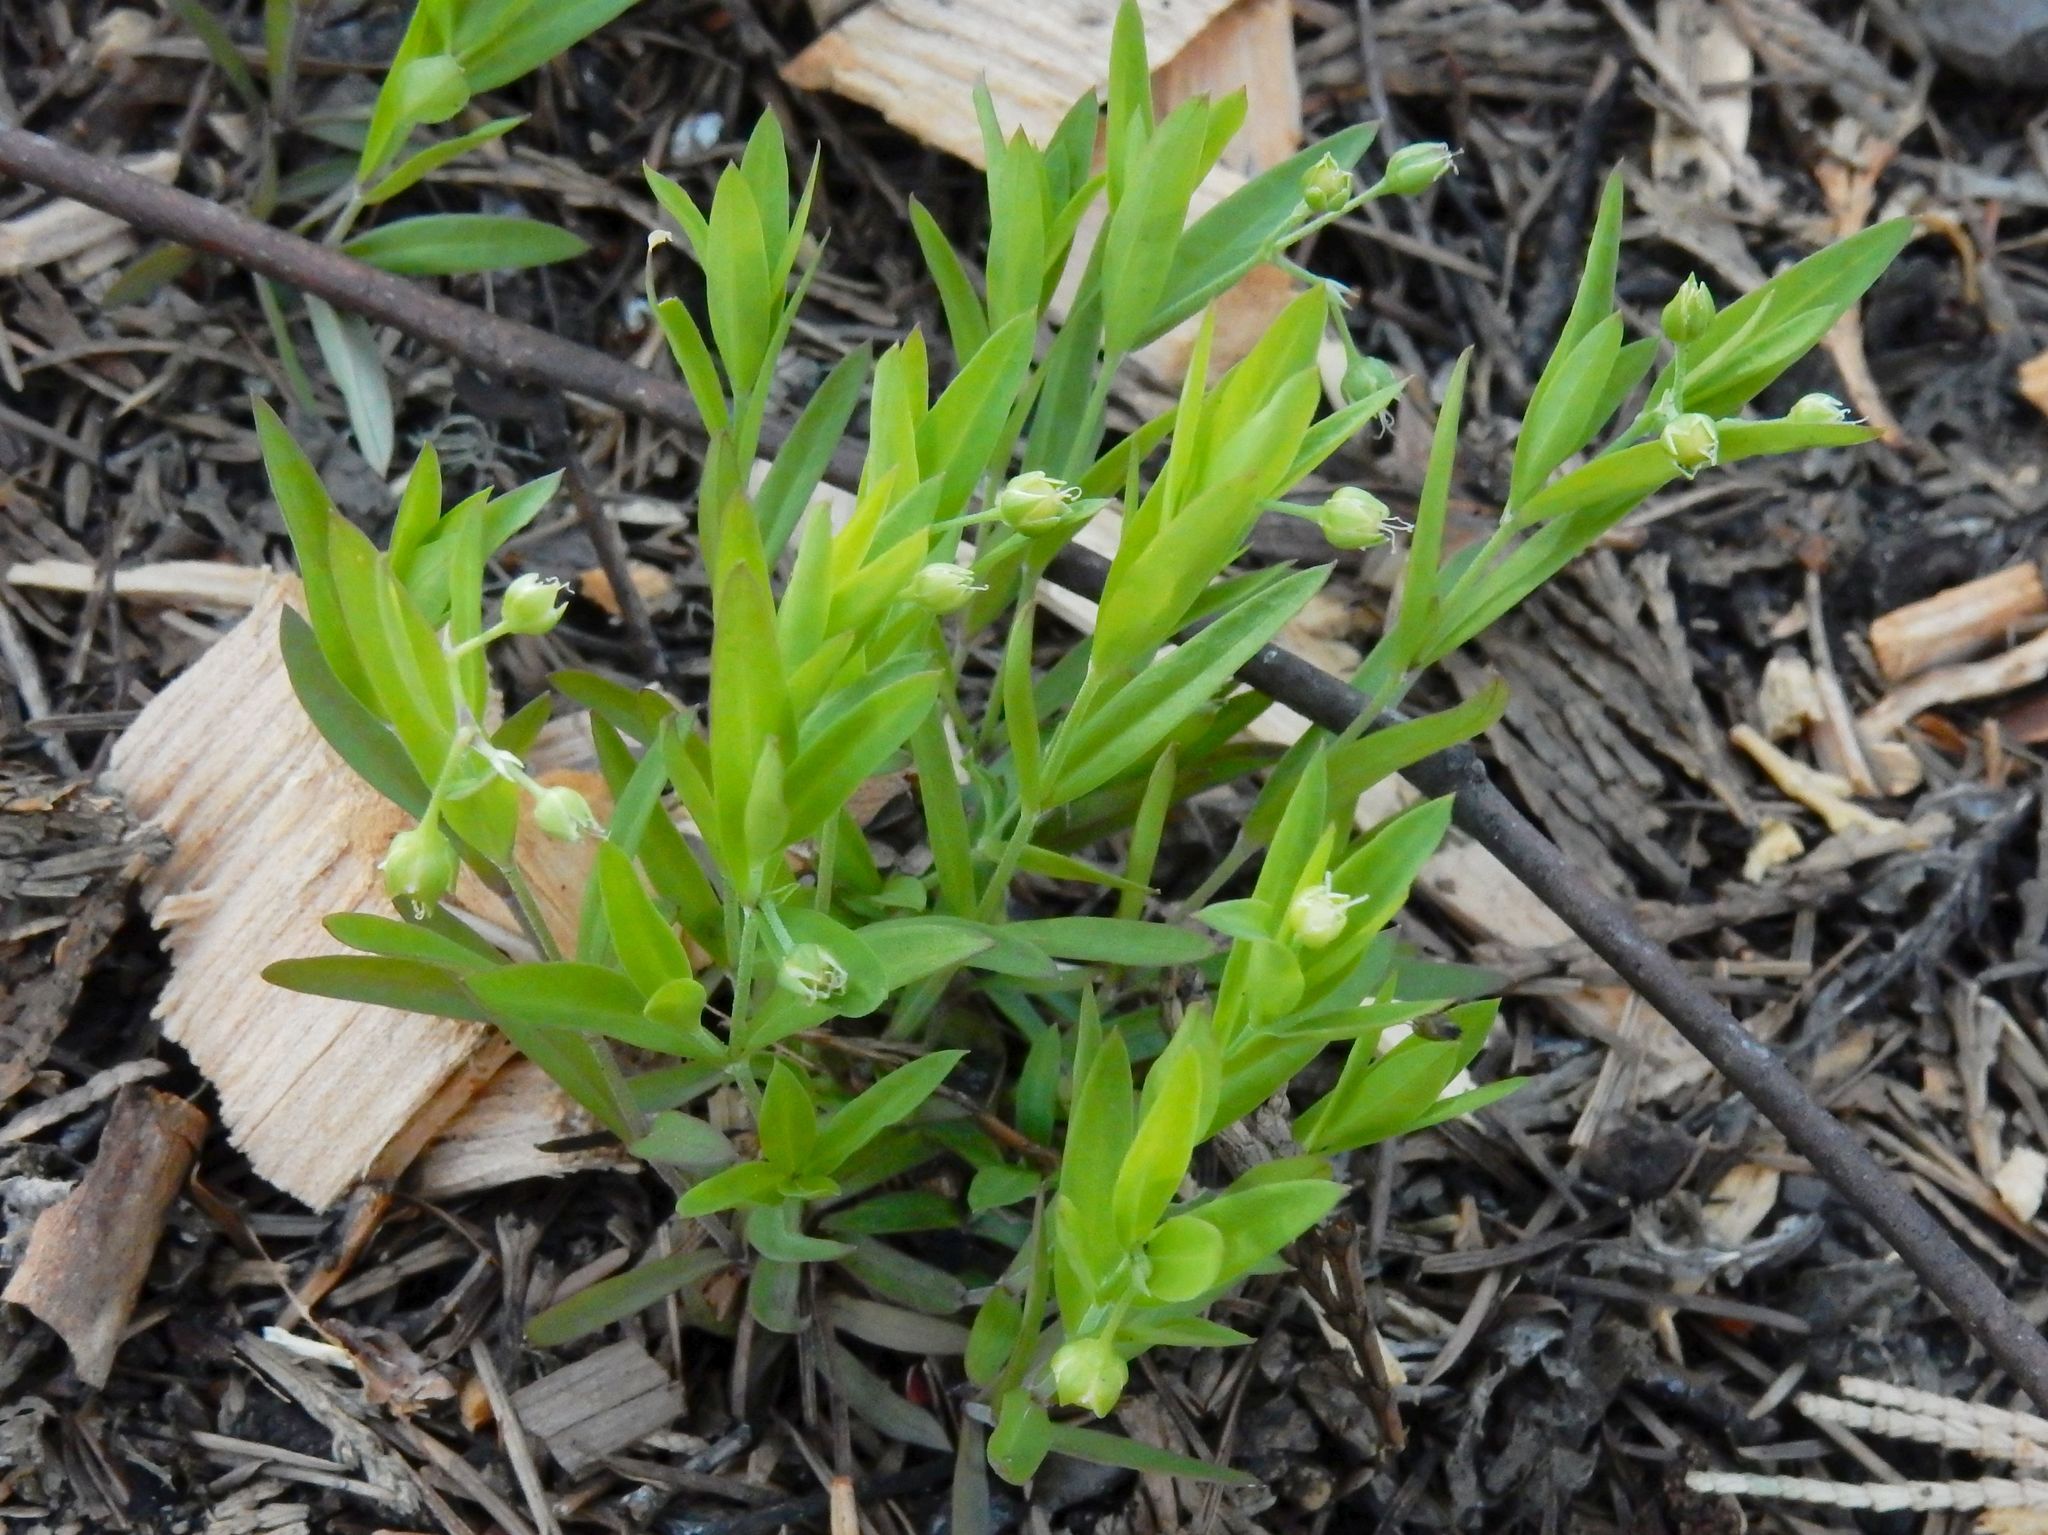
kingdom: Plantae
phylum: Tracheophyta
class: Magnoliopsida
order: Caryophyllales
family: Caryophyllaceae
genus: Moehringia
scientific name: Moehringia macrophylla
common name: Big-leaf sandwort
